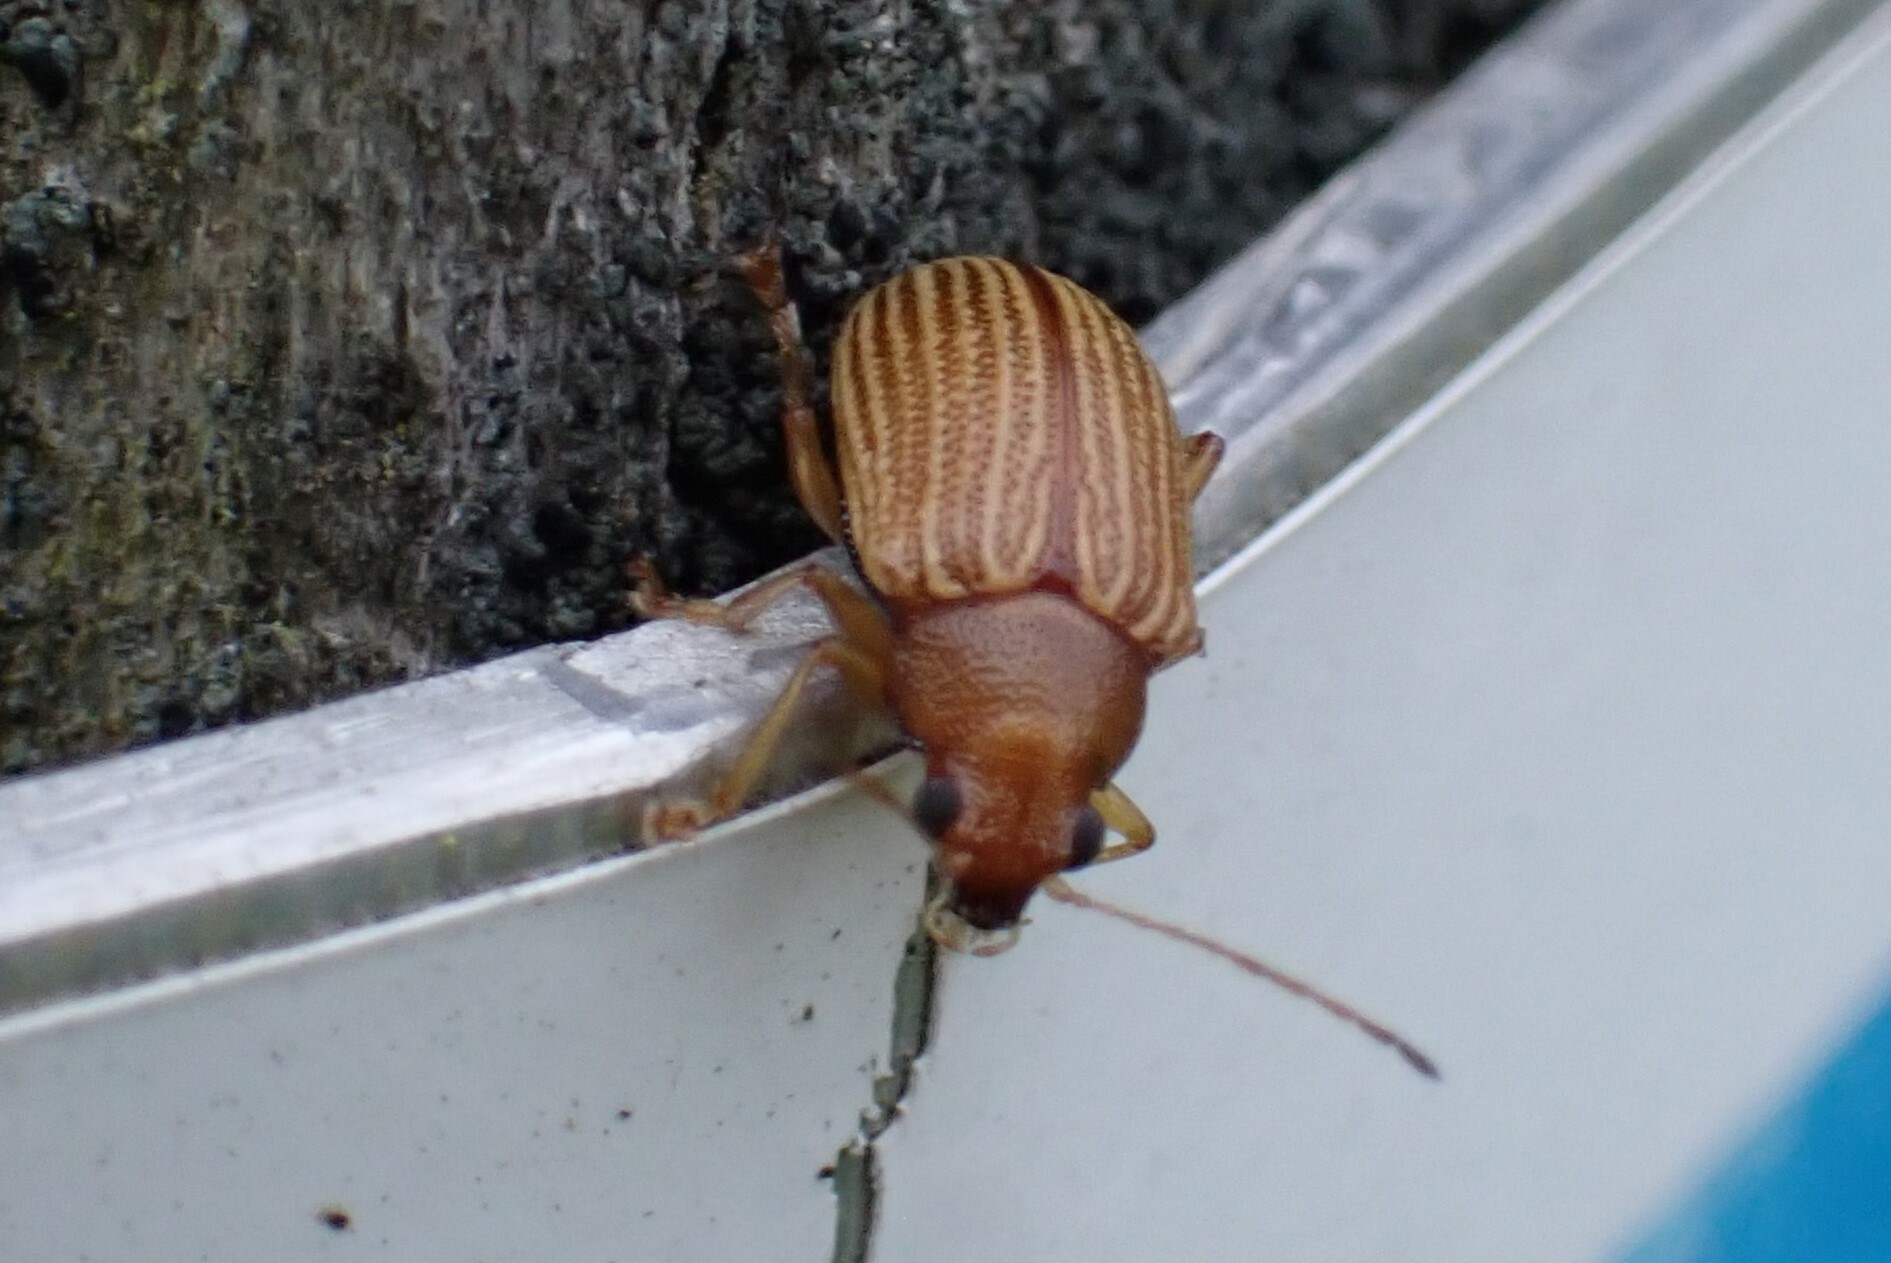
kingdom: Animalia
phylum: Arthropoda
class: Insecta
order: Coleoptera
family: Chrysomelidae
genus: Colaspis
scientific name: Colaspis brunnea
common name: Grape colaspis
